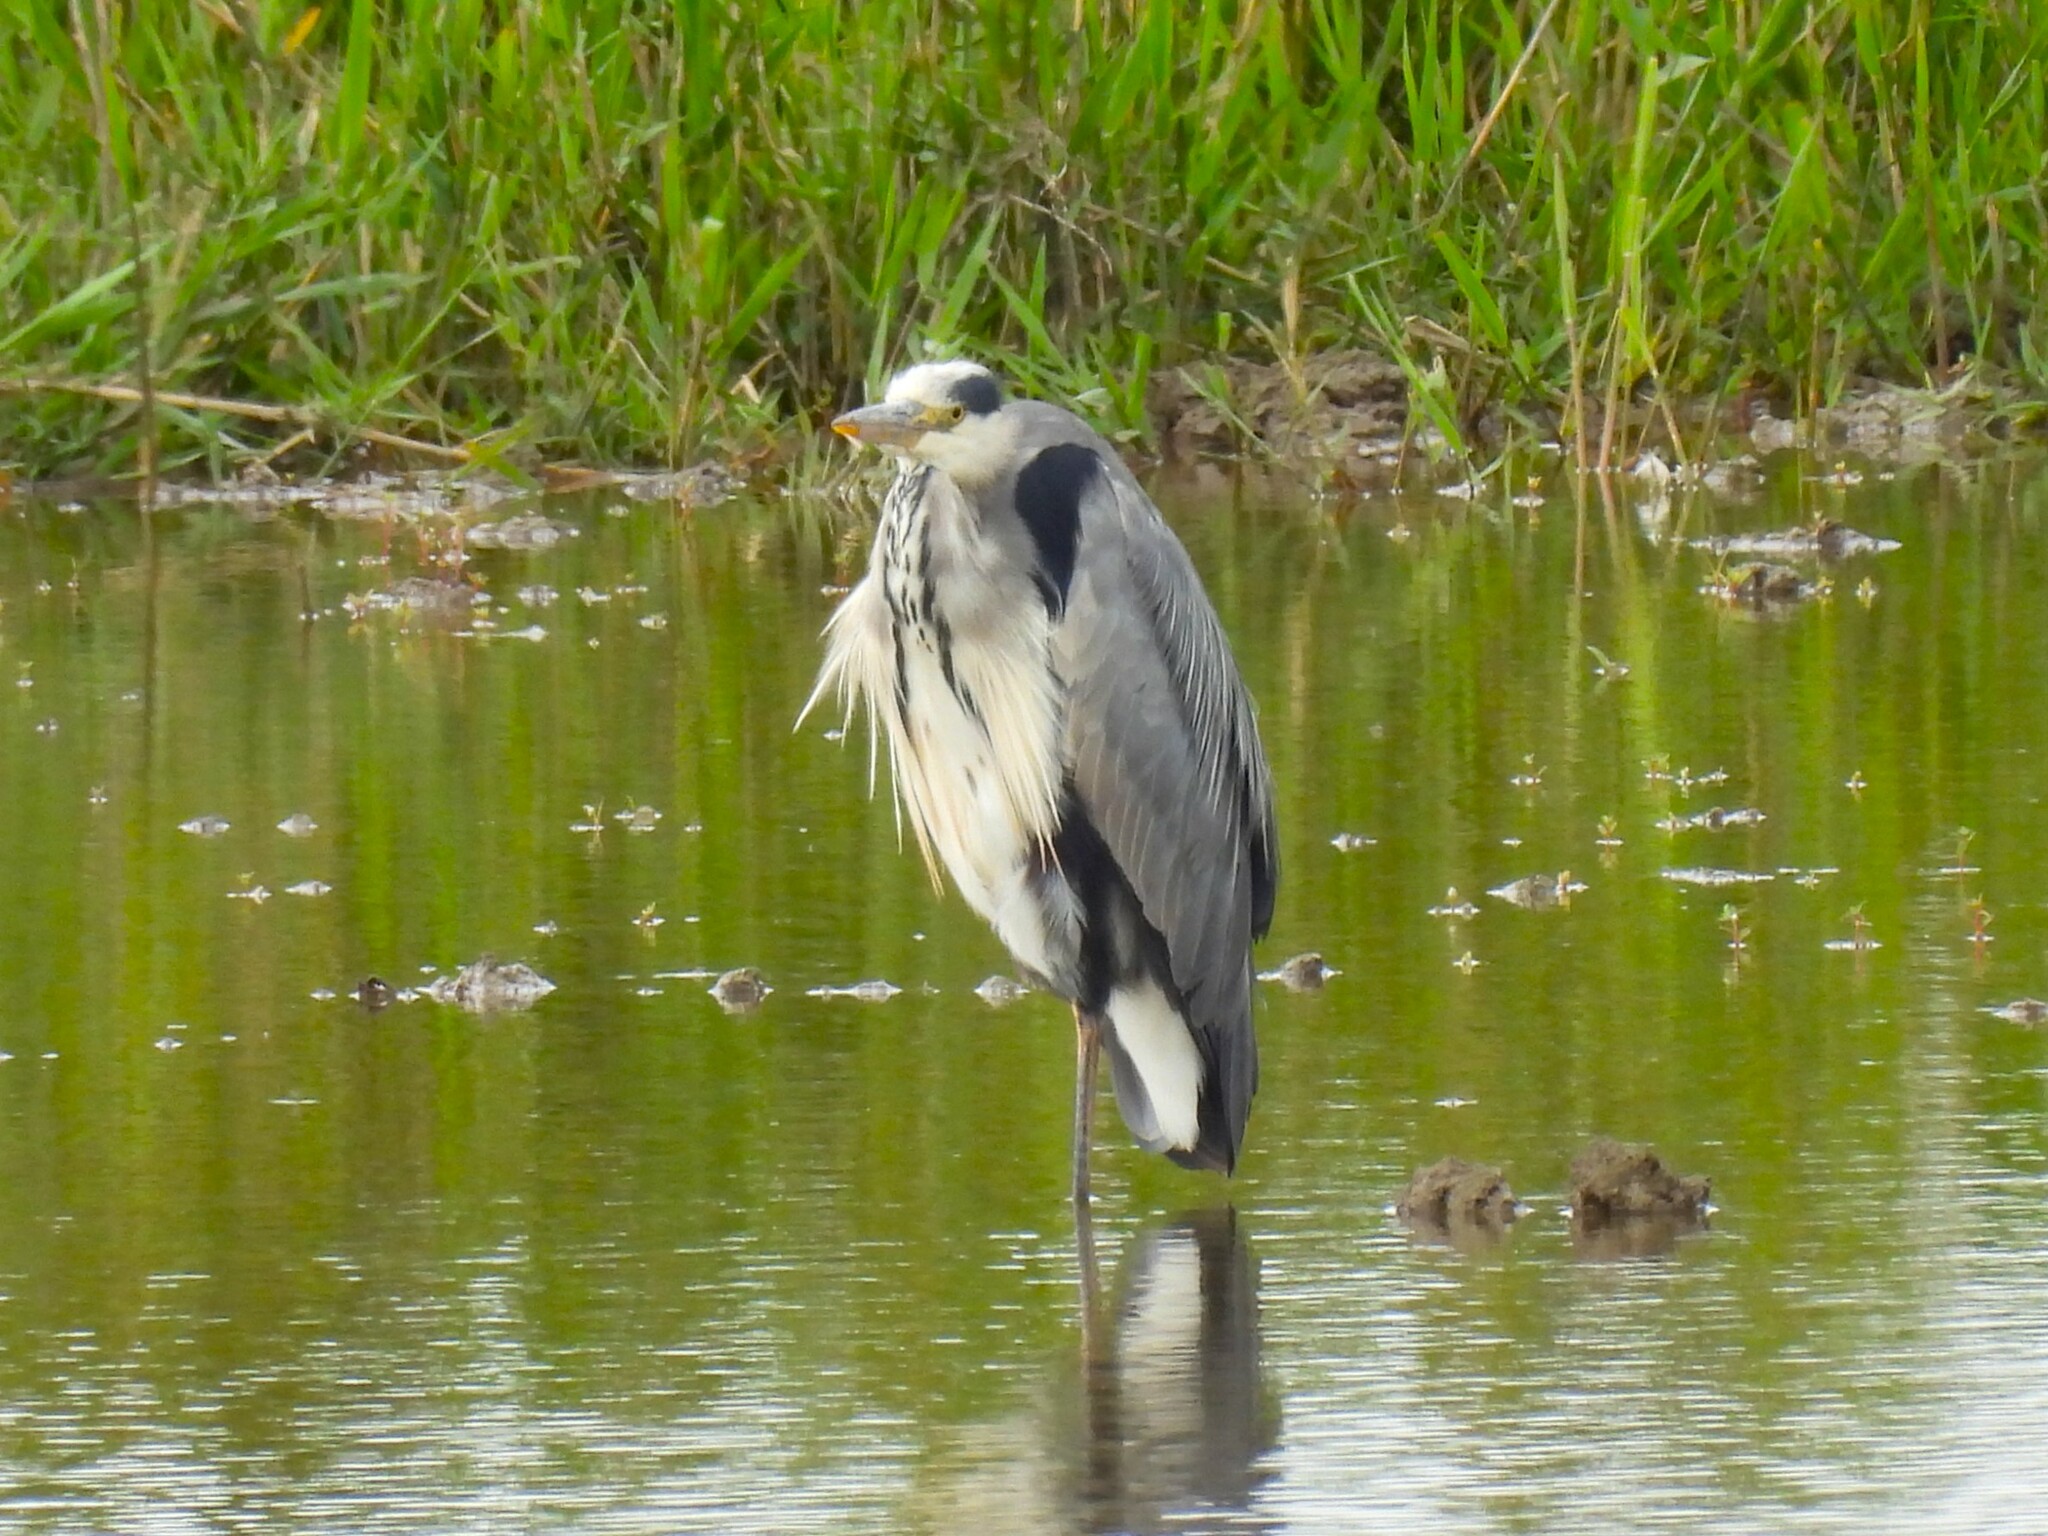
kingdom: Animalia
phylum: Chordata
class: Aves
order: Pelecaniformes
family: Ardeidae
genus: Ardea
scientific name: Ardea cinerea
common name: Grey heron
